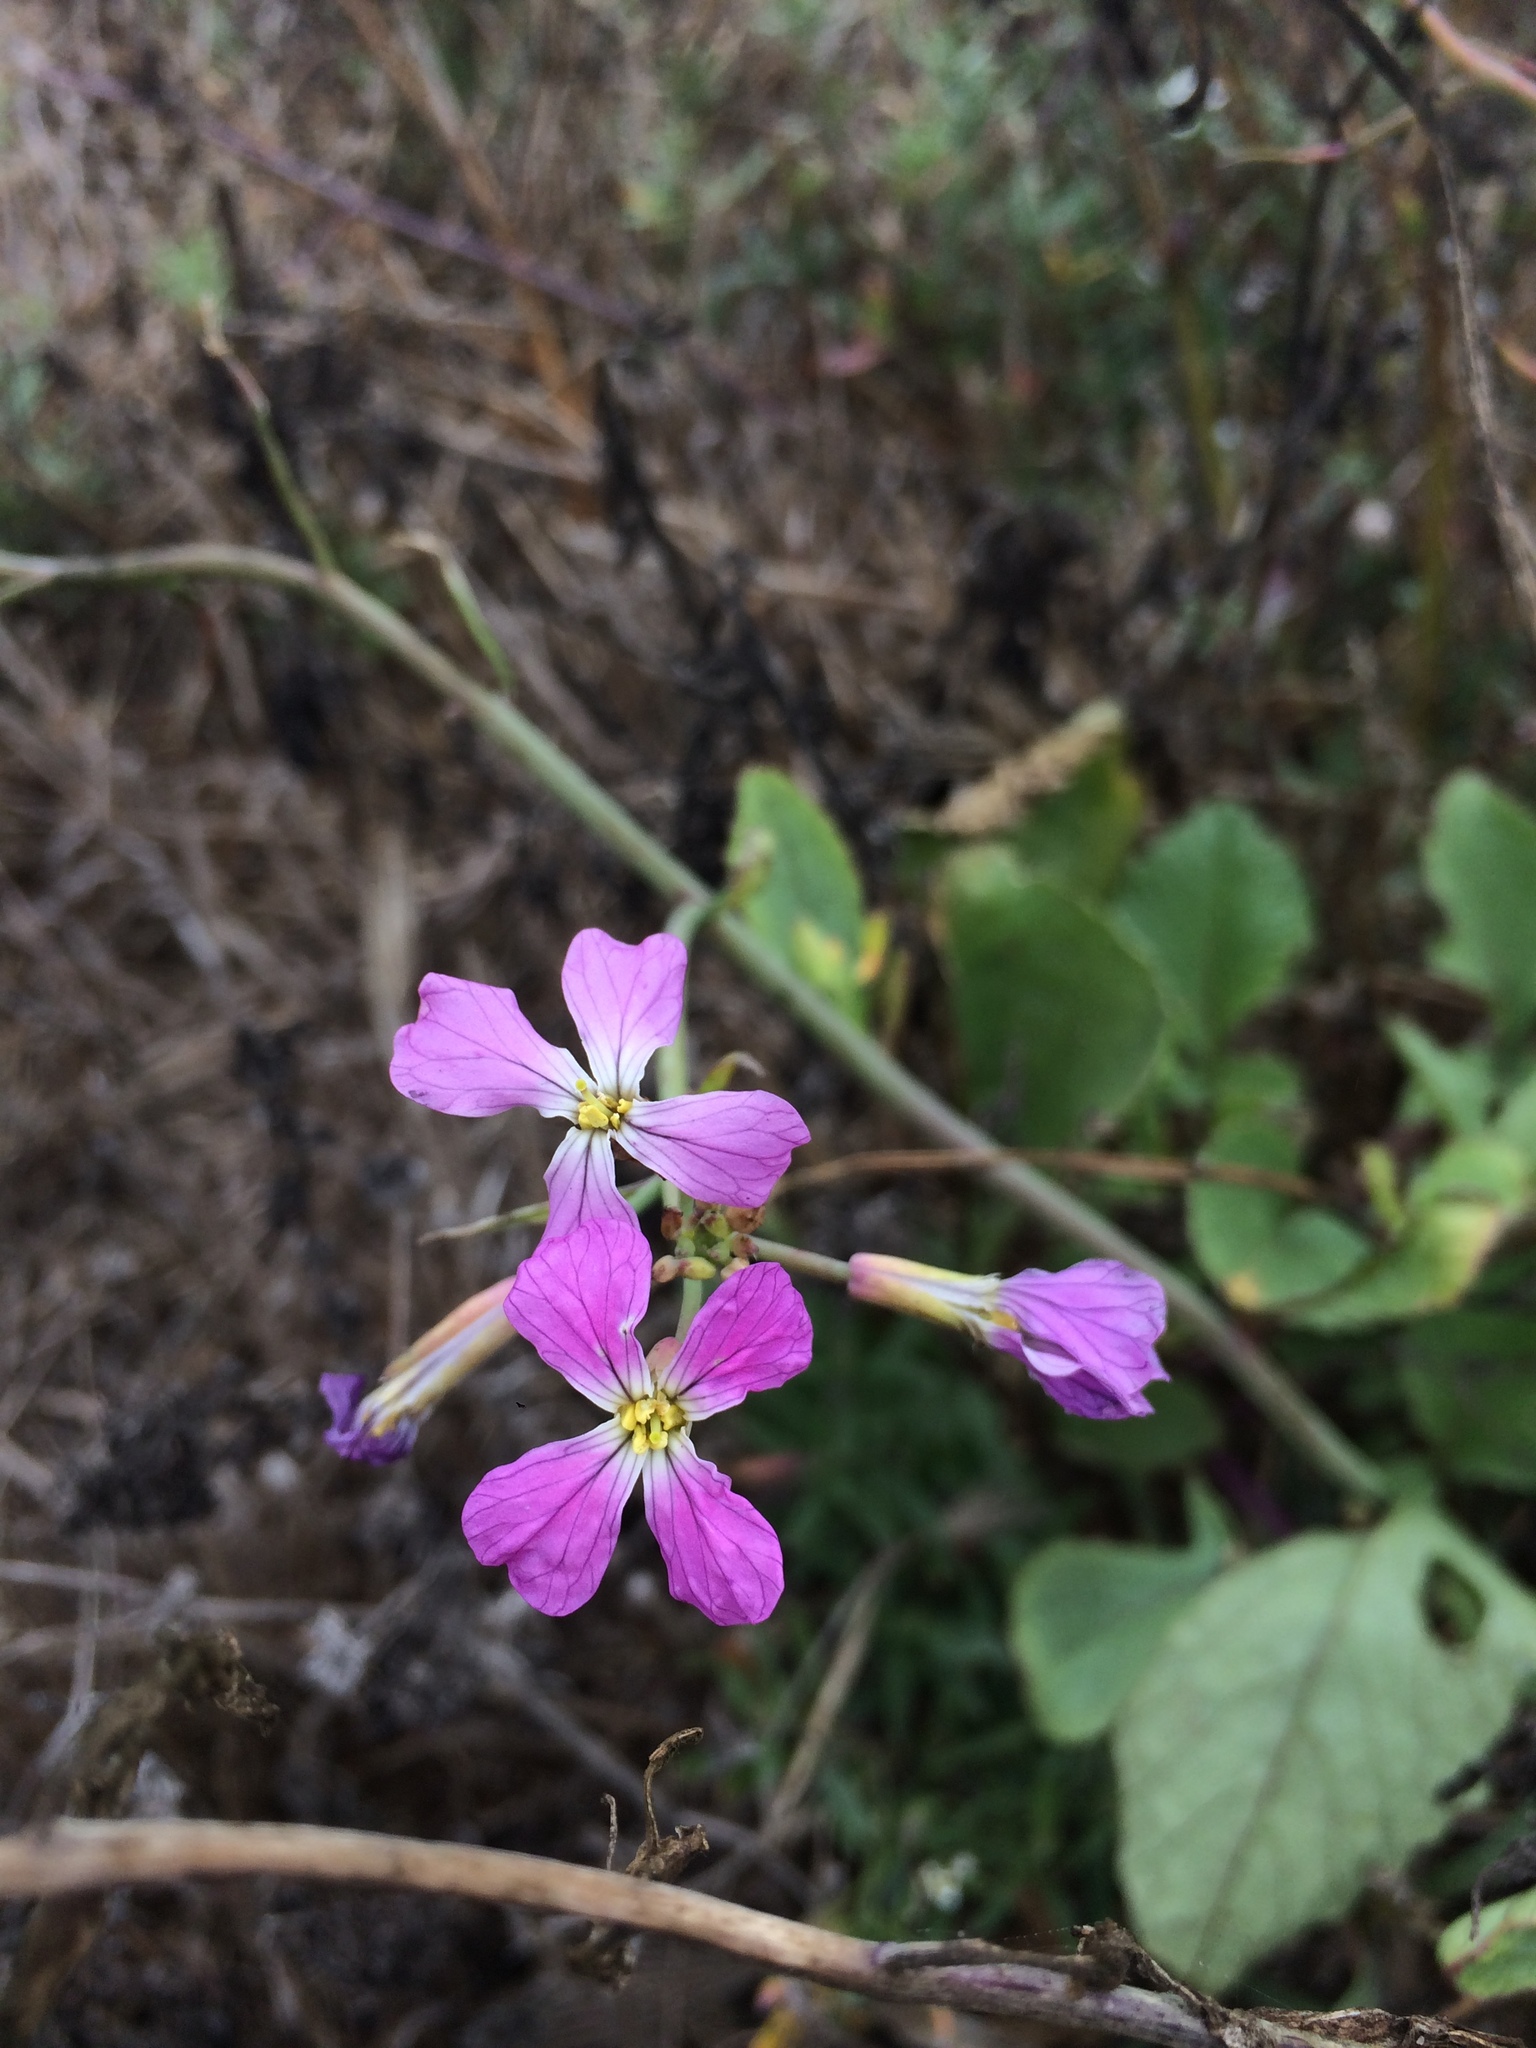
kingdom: Plantae
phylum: Tracheophyta
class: Magnoliopsida
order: Brassicales
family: Brassicaceae
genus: Raphanus
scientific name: Raphanus sativus
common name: Cultivated radish
